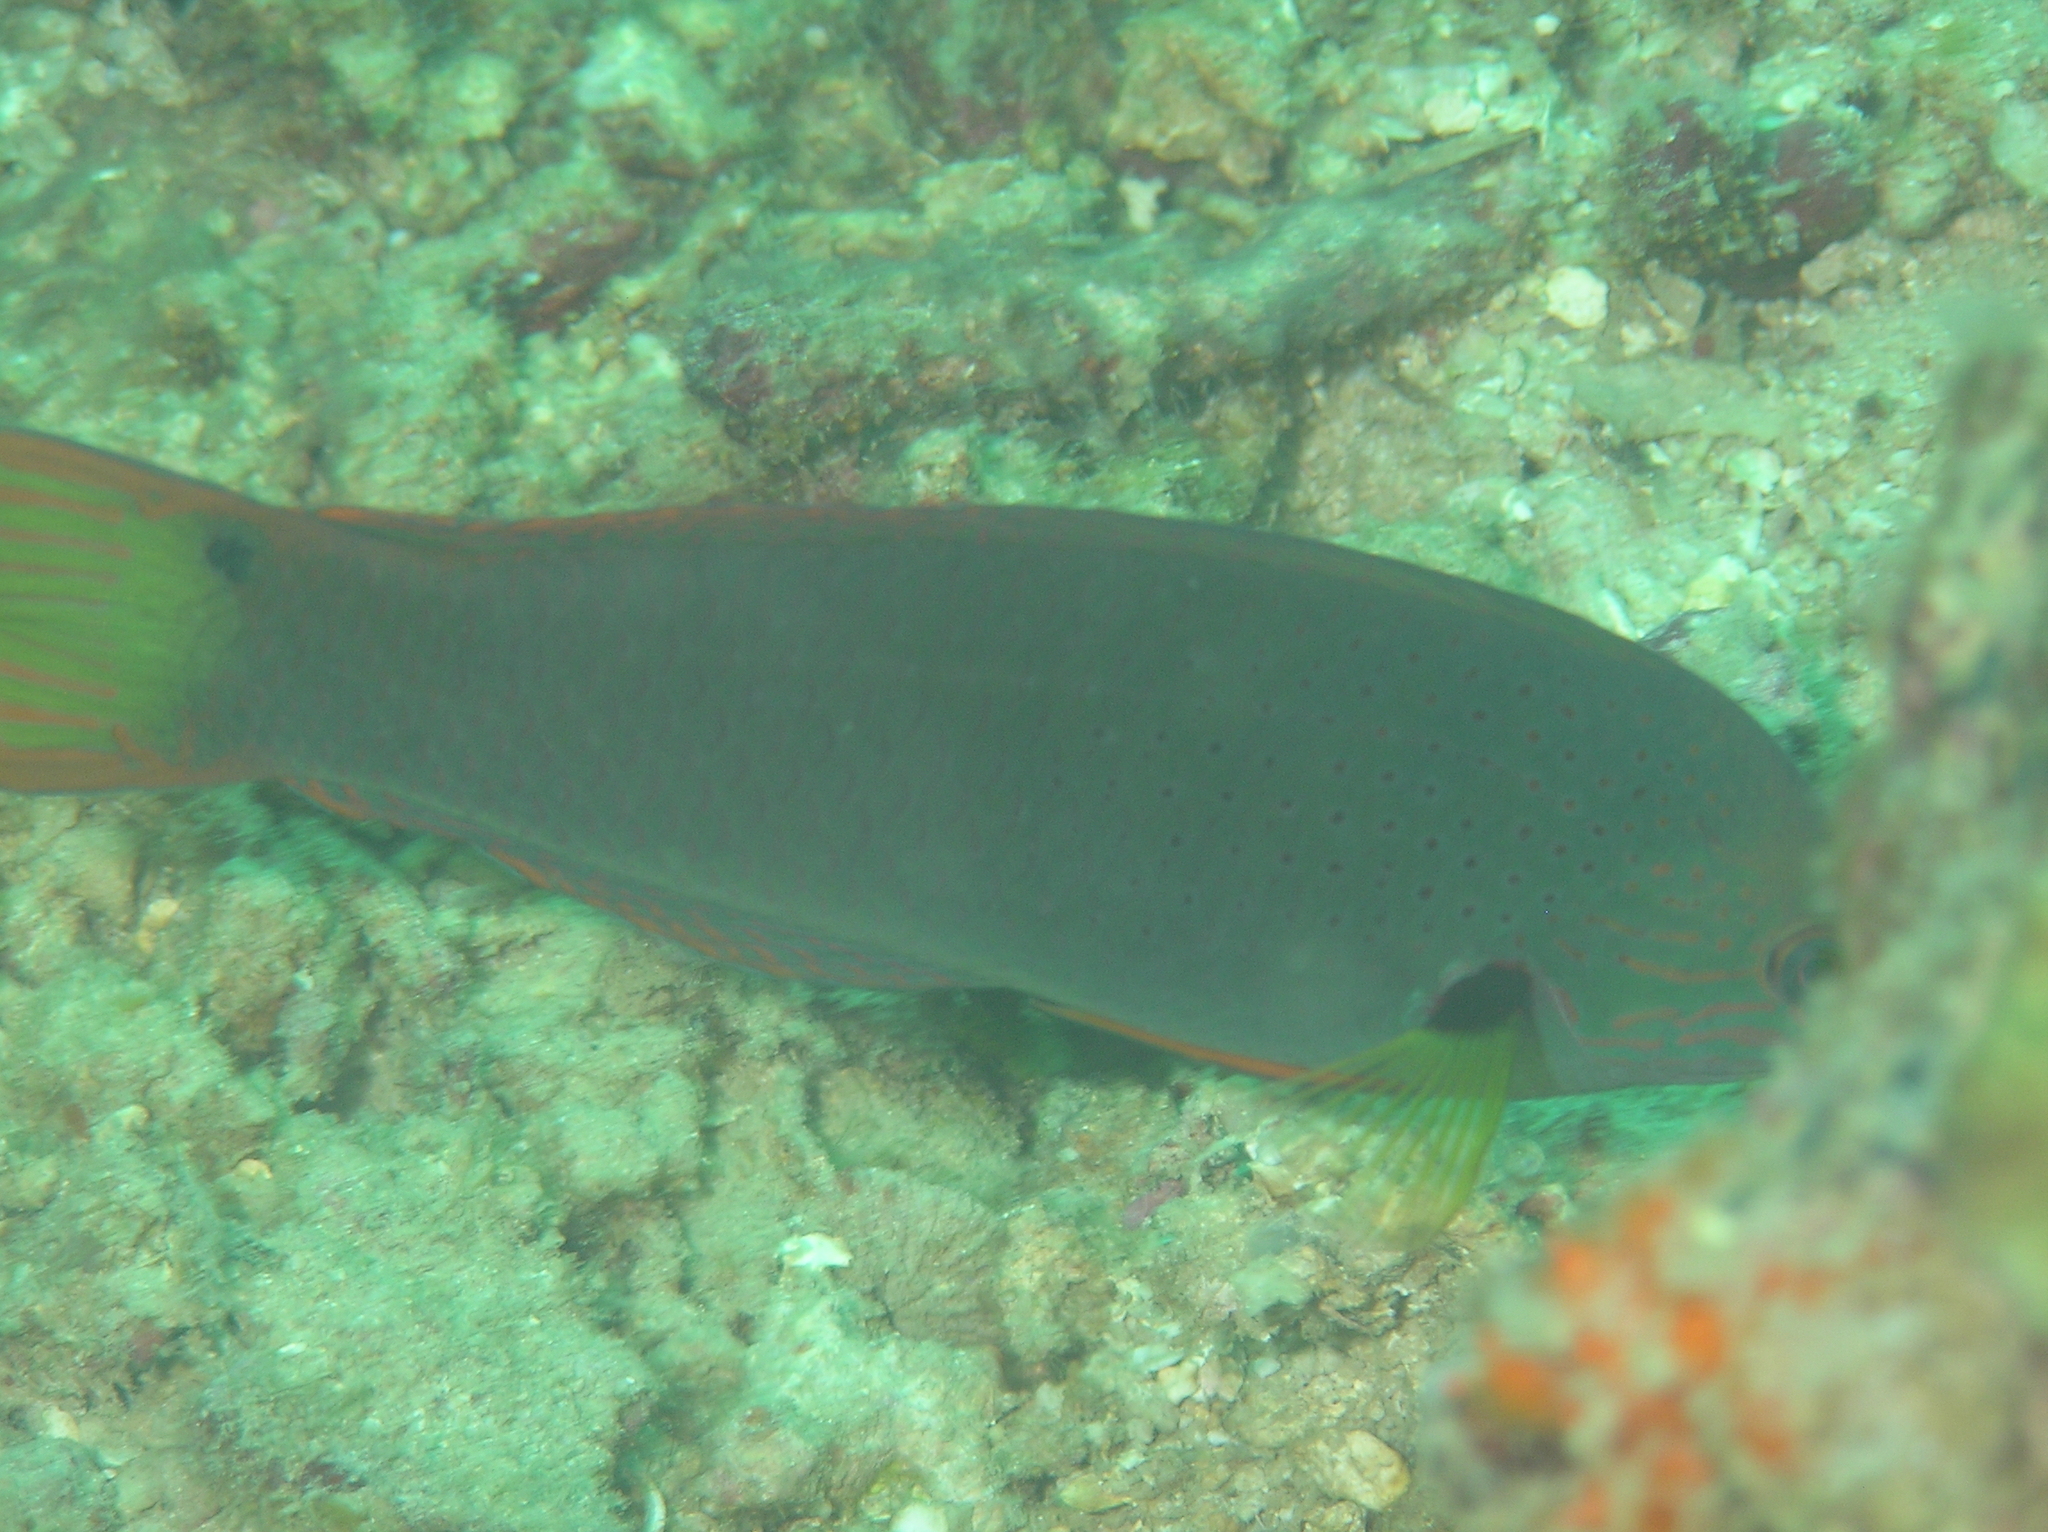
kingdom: Animalia
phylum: Chordata
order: Perciformes
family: Labridae
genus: Halichoeres
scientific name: Halichoeres melanochir
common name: Black wrasse
